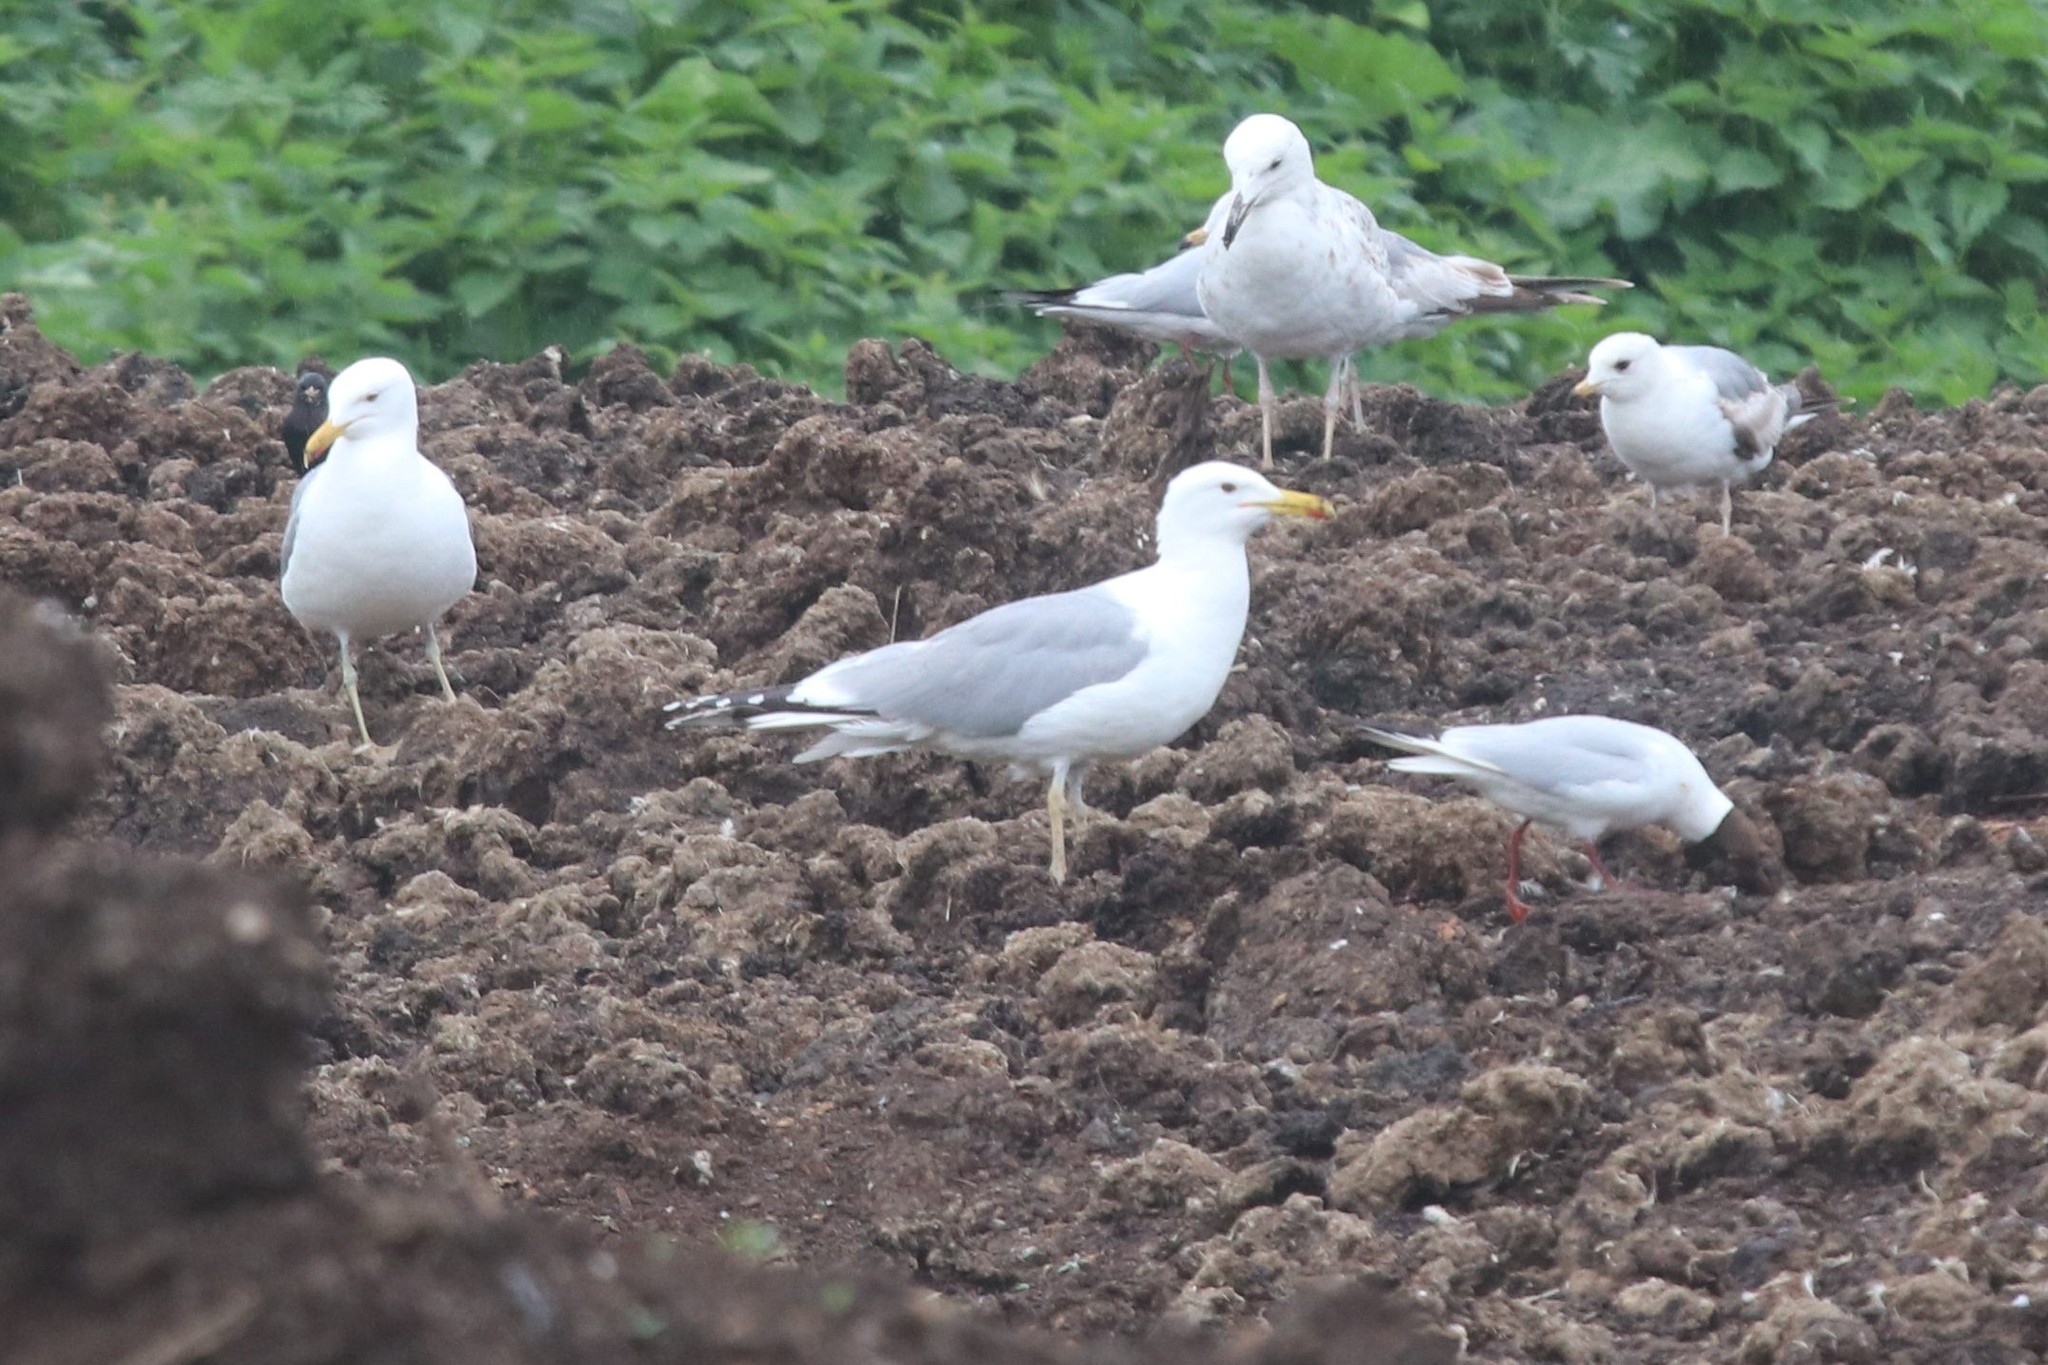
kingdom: Animalia
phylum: Chordata
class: Aves
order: Charadriiformes
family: Laridae
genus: Larus
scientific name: Larus cachinnans
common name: Caspian gull
